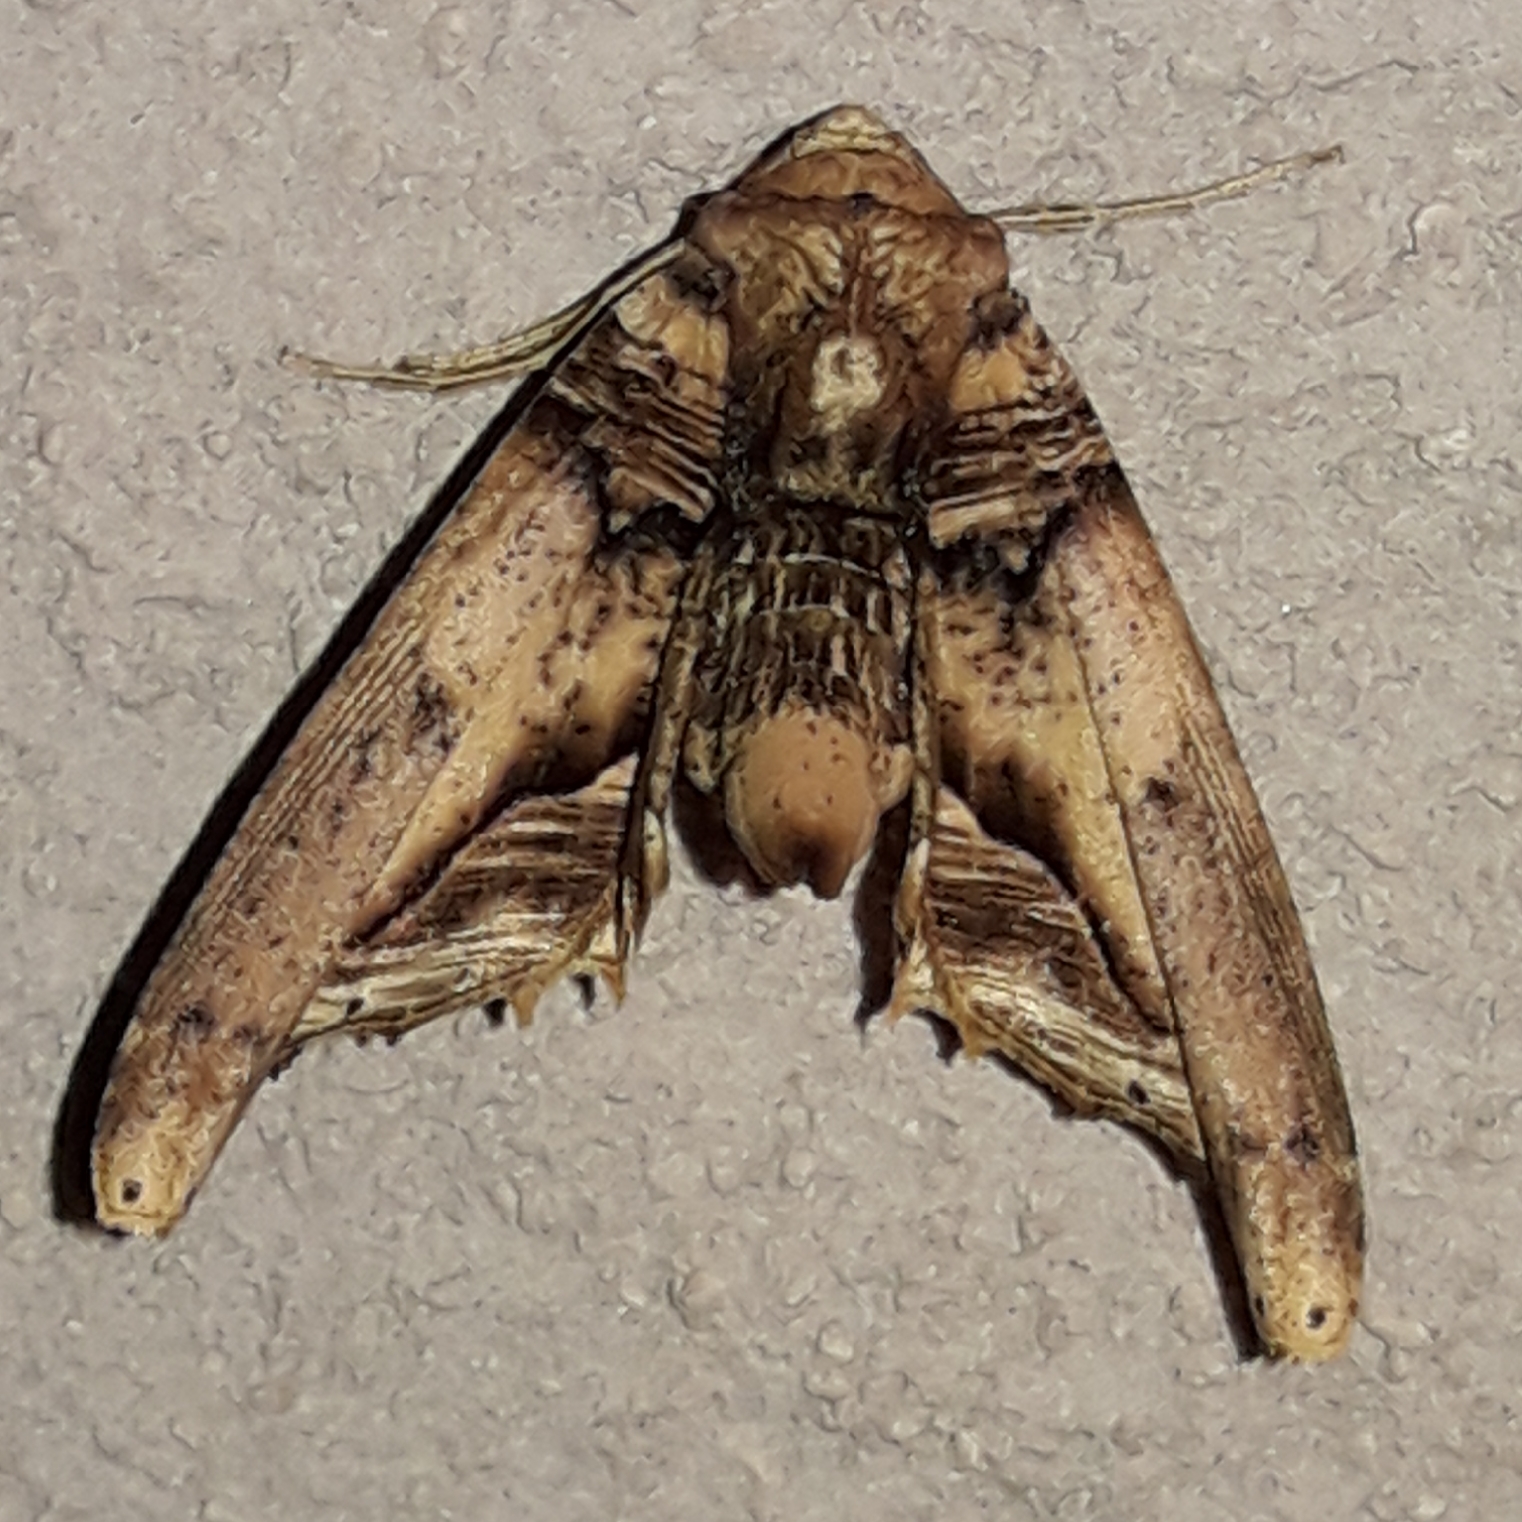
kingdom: Animalia
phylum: Arthropoda
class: Insecta
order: Lepidoptera
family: Geometridae
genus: Pero
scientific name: Pero xylinaria
